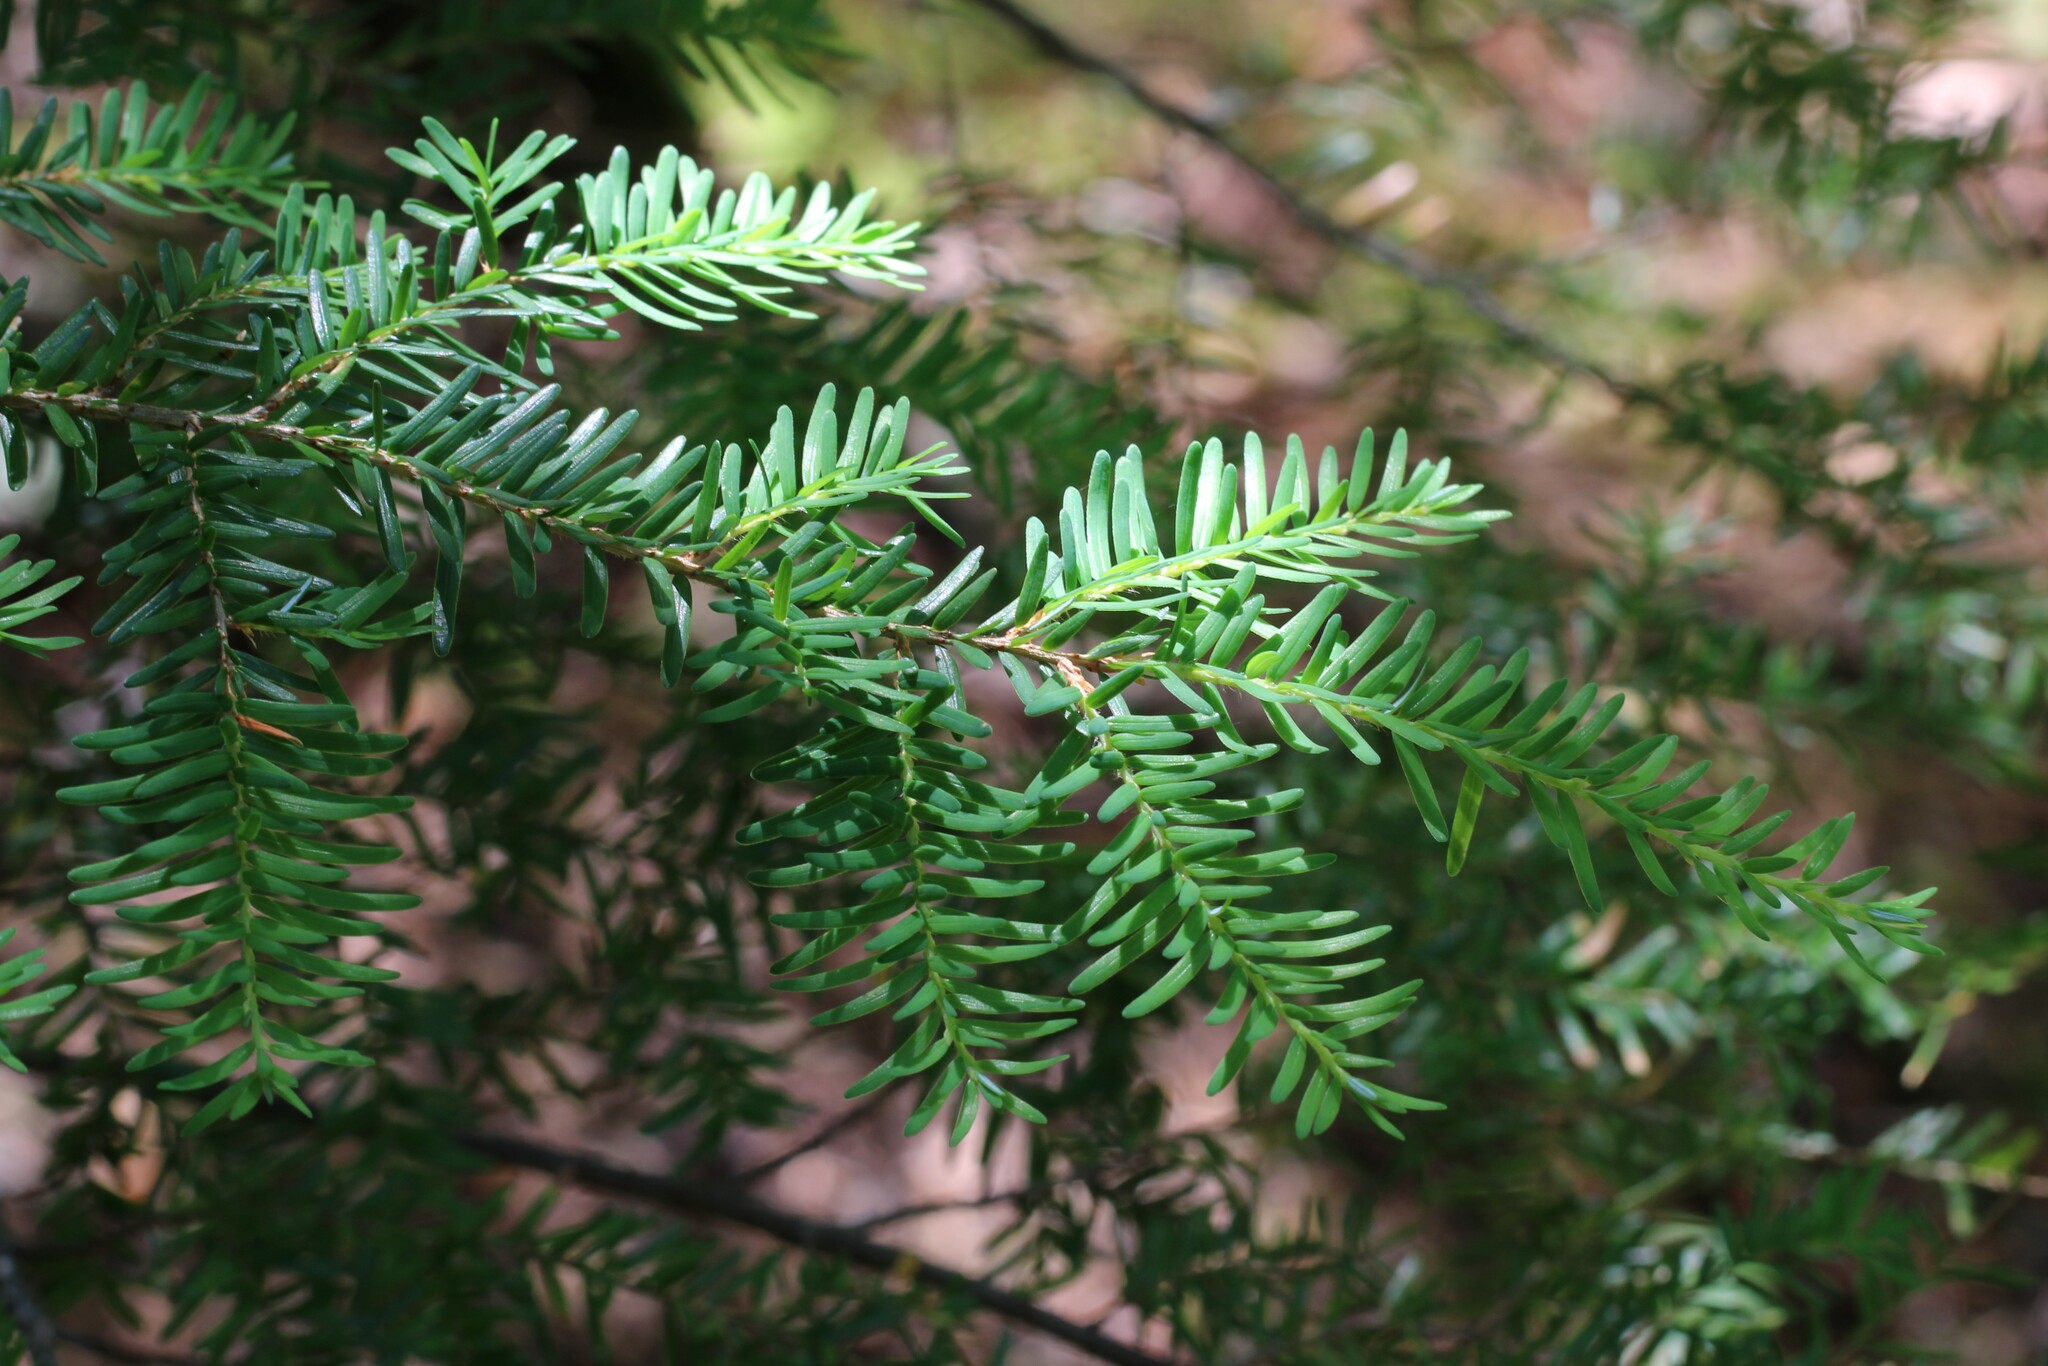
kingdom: Plantae
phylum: Tracheophyta
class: Pinopsida
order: Pinales
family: Pinaceae
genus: Tsuga
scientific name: Tsuga heterophylla
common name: Western hemlock
